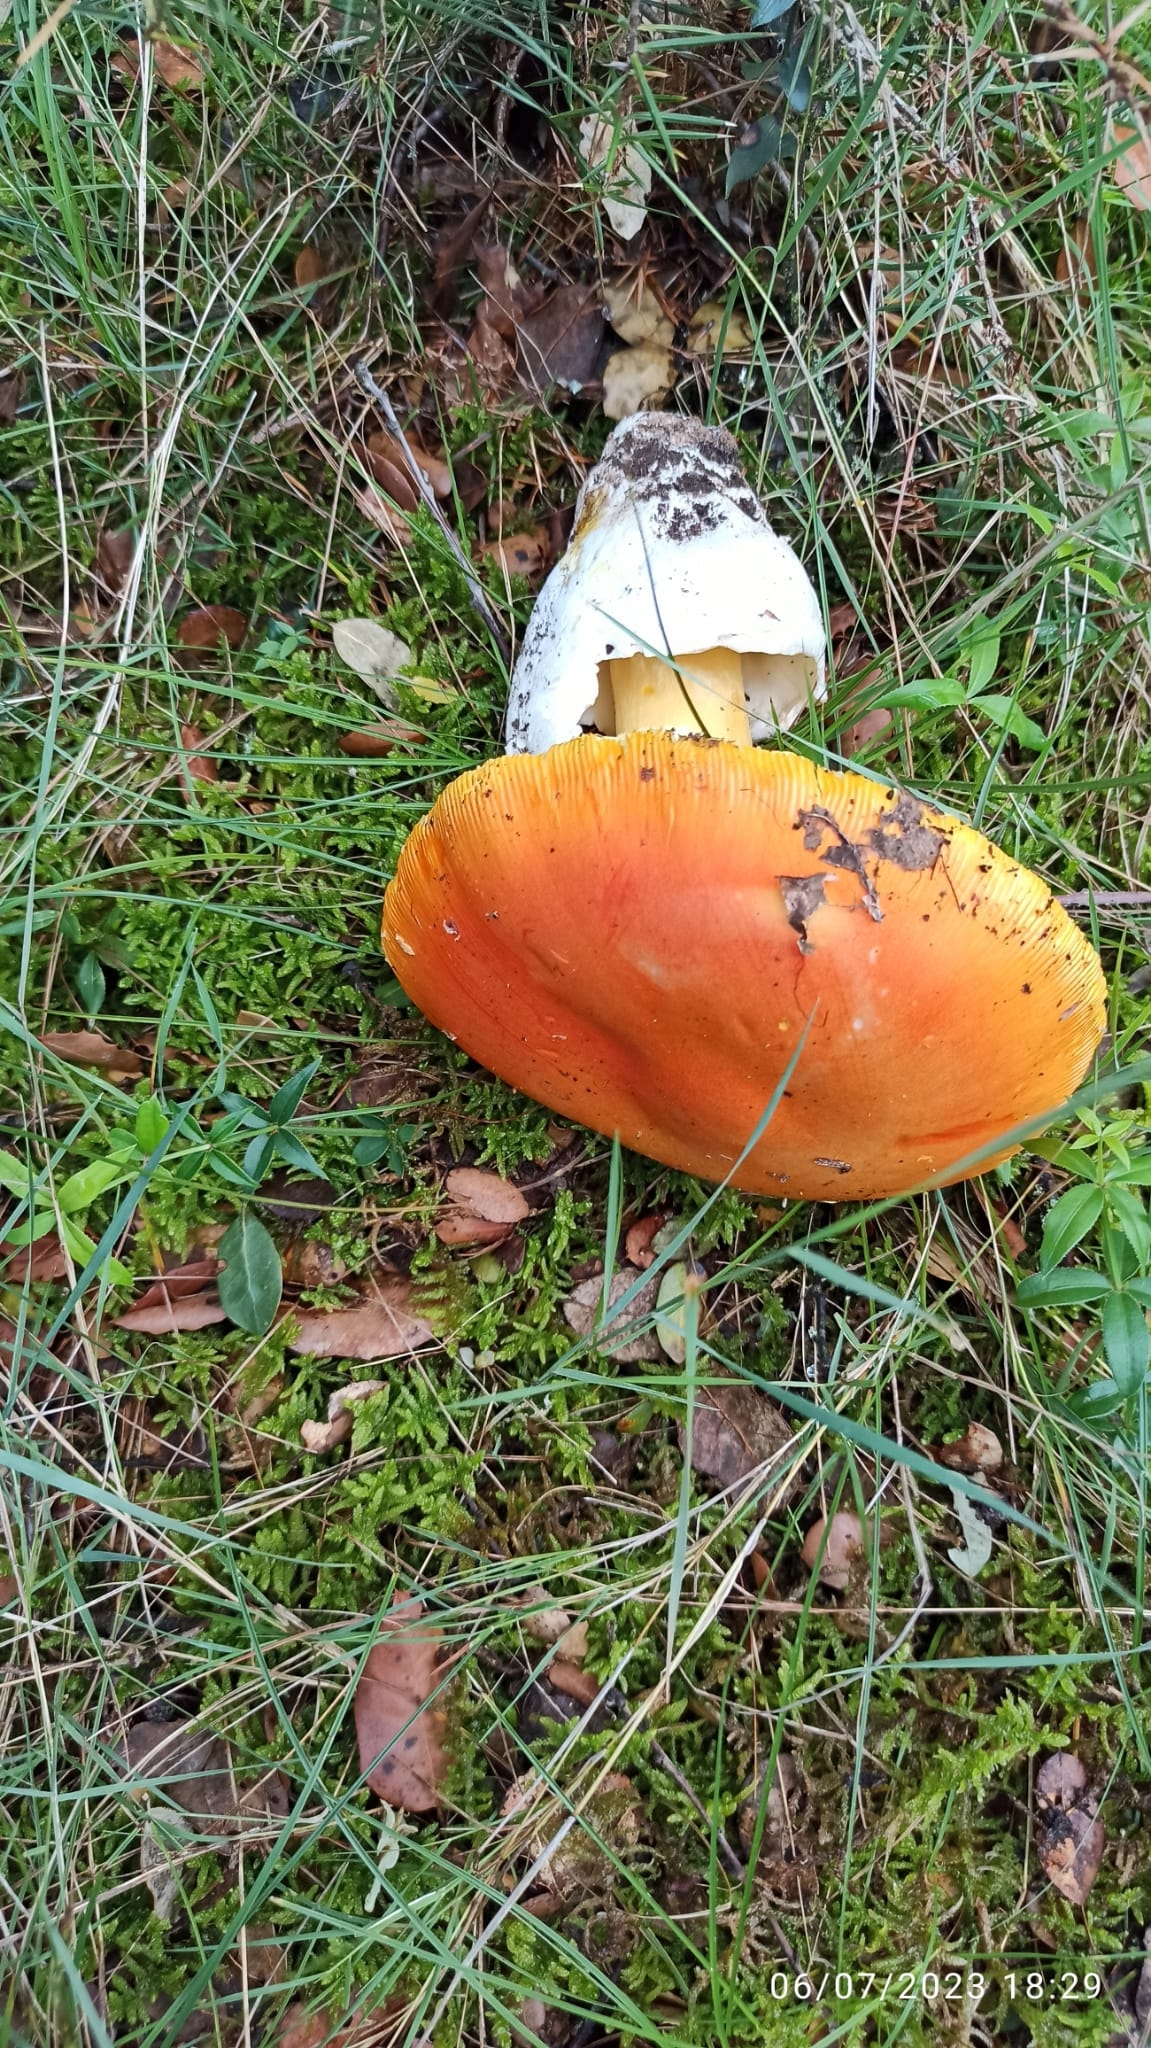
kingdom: Fungi
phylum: Basidiomycota
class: Agaricomycetes
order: Agaricales
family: Amanitaceae
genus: Amanita
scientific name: Amanita caesarea
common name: Caesar's amanita
